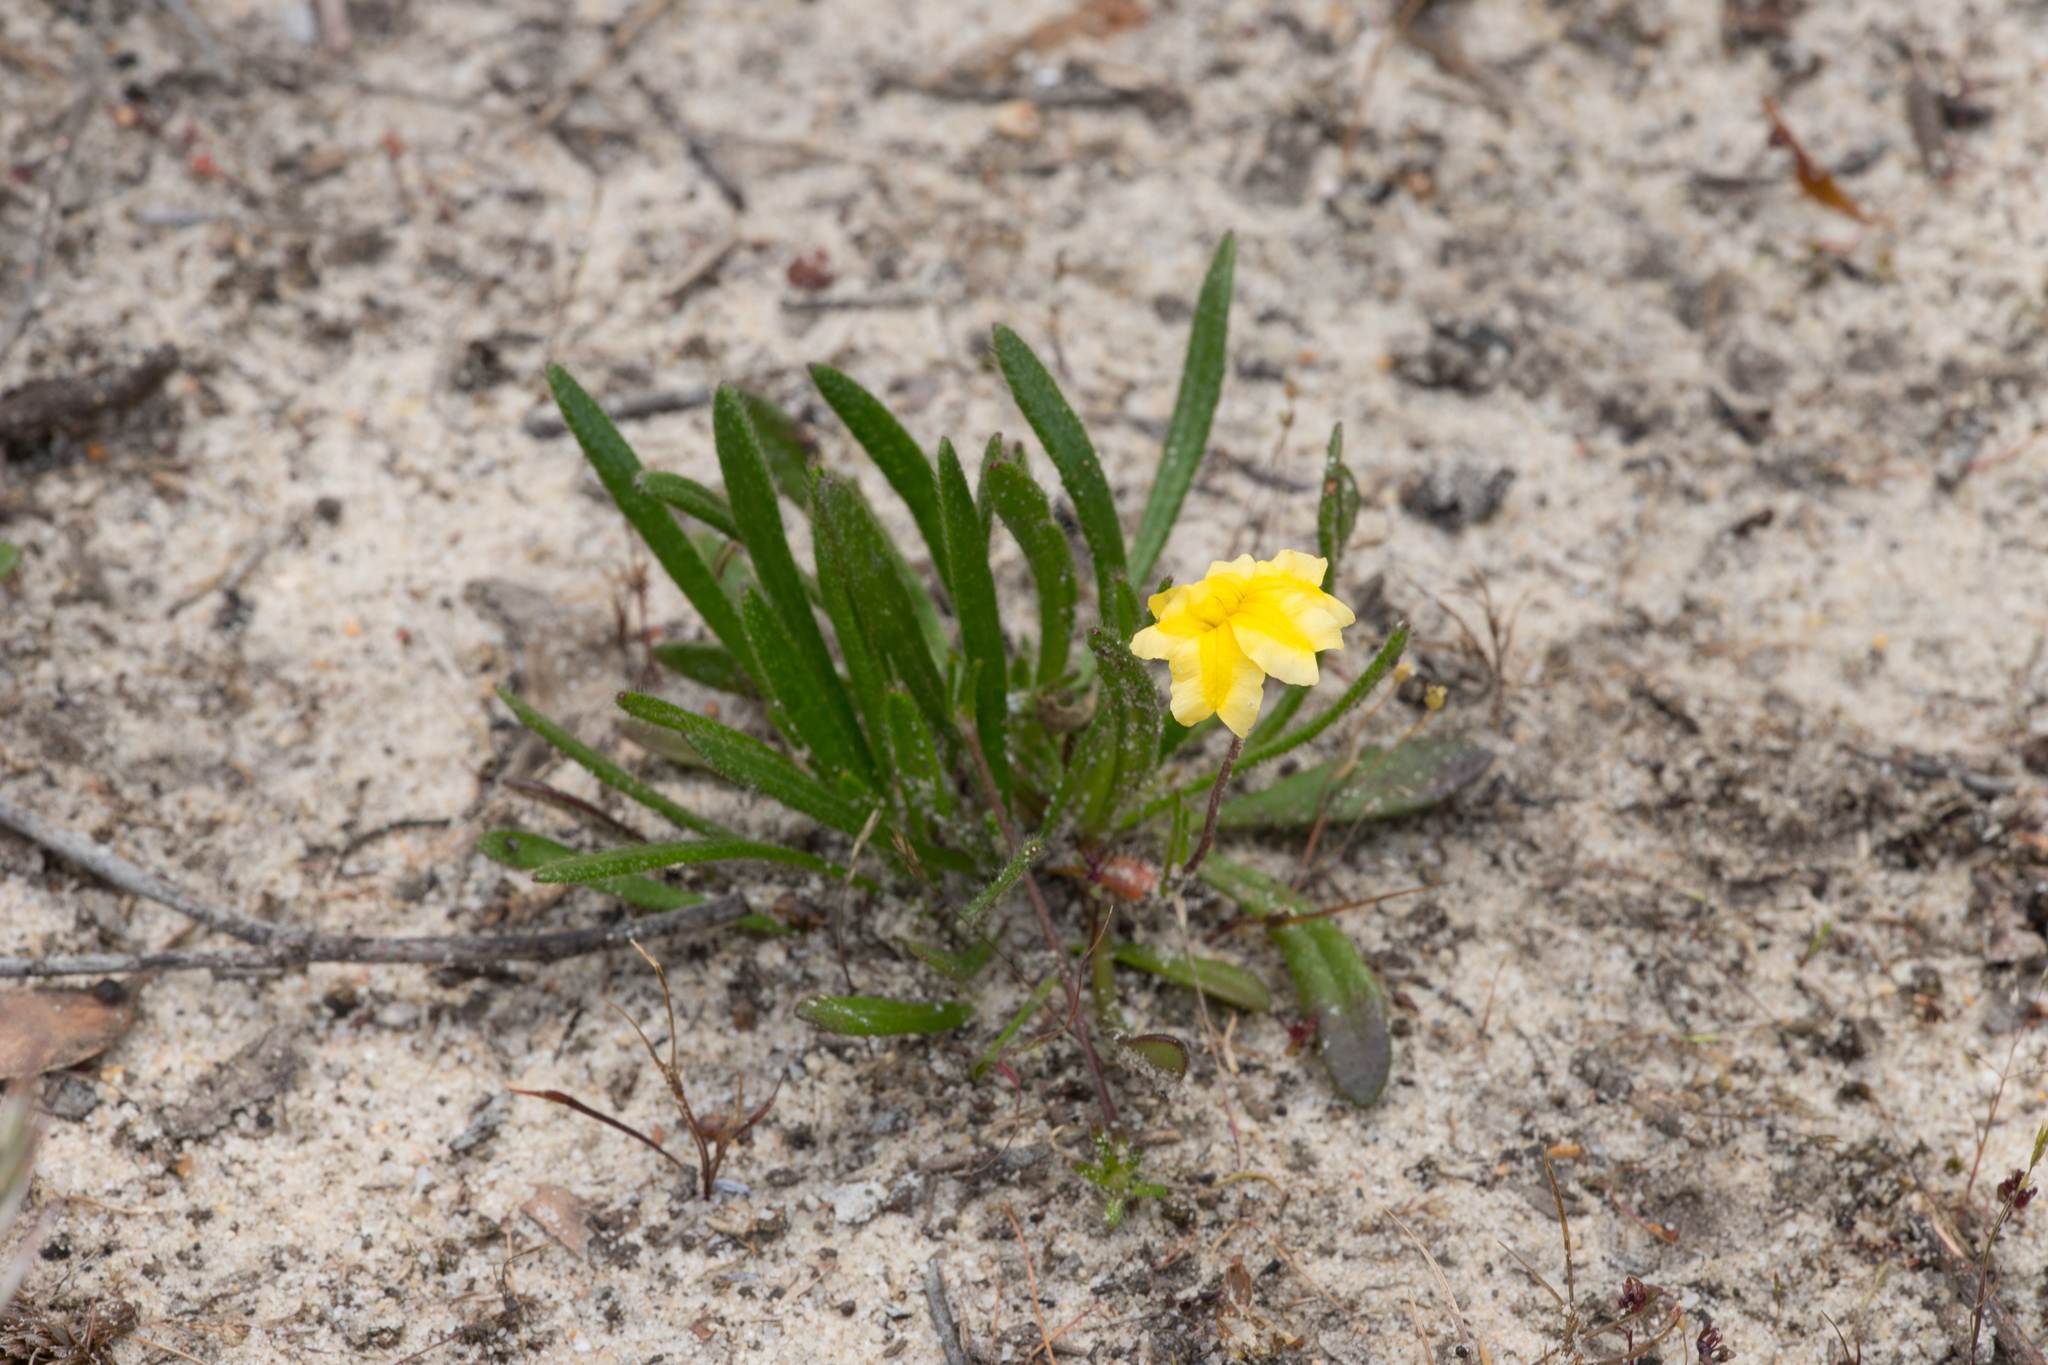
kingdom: Plantae
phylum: Tracheophyta
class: Magnoliopsida
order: Asterales
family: Goodeniaceae
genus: Goodenia
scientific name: Goodenia geniculata
